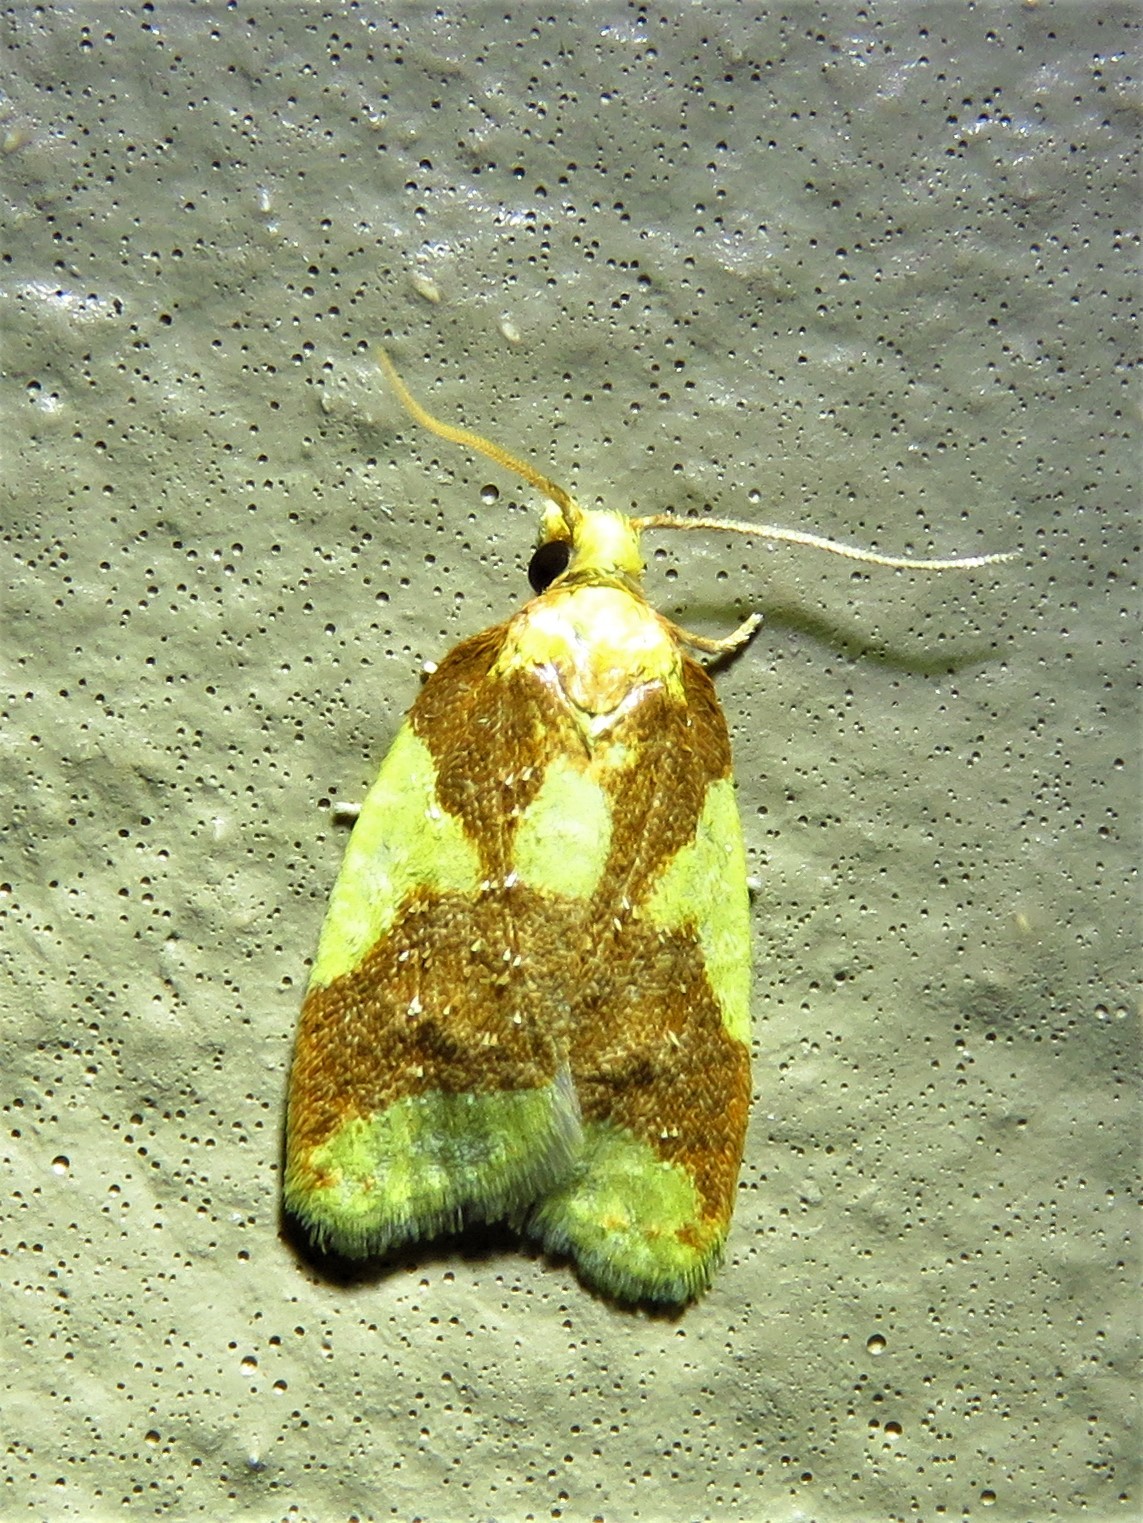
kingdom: Animalia
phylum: Arthropoda
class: Insecta
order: Lepidoptera
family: Tortricidae
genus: Sparganothis
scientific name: Sparganothis pulcherrimana
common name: Beautiful sparganothis
